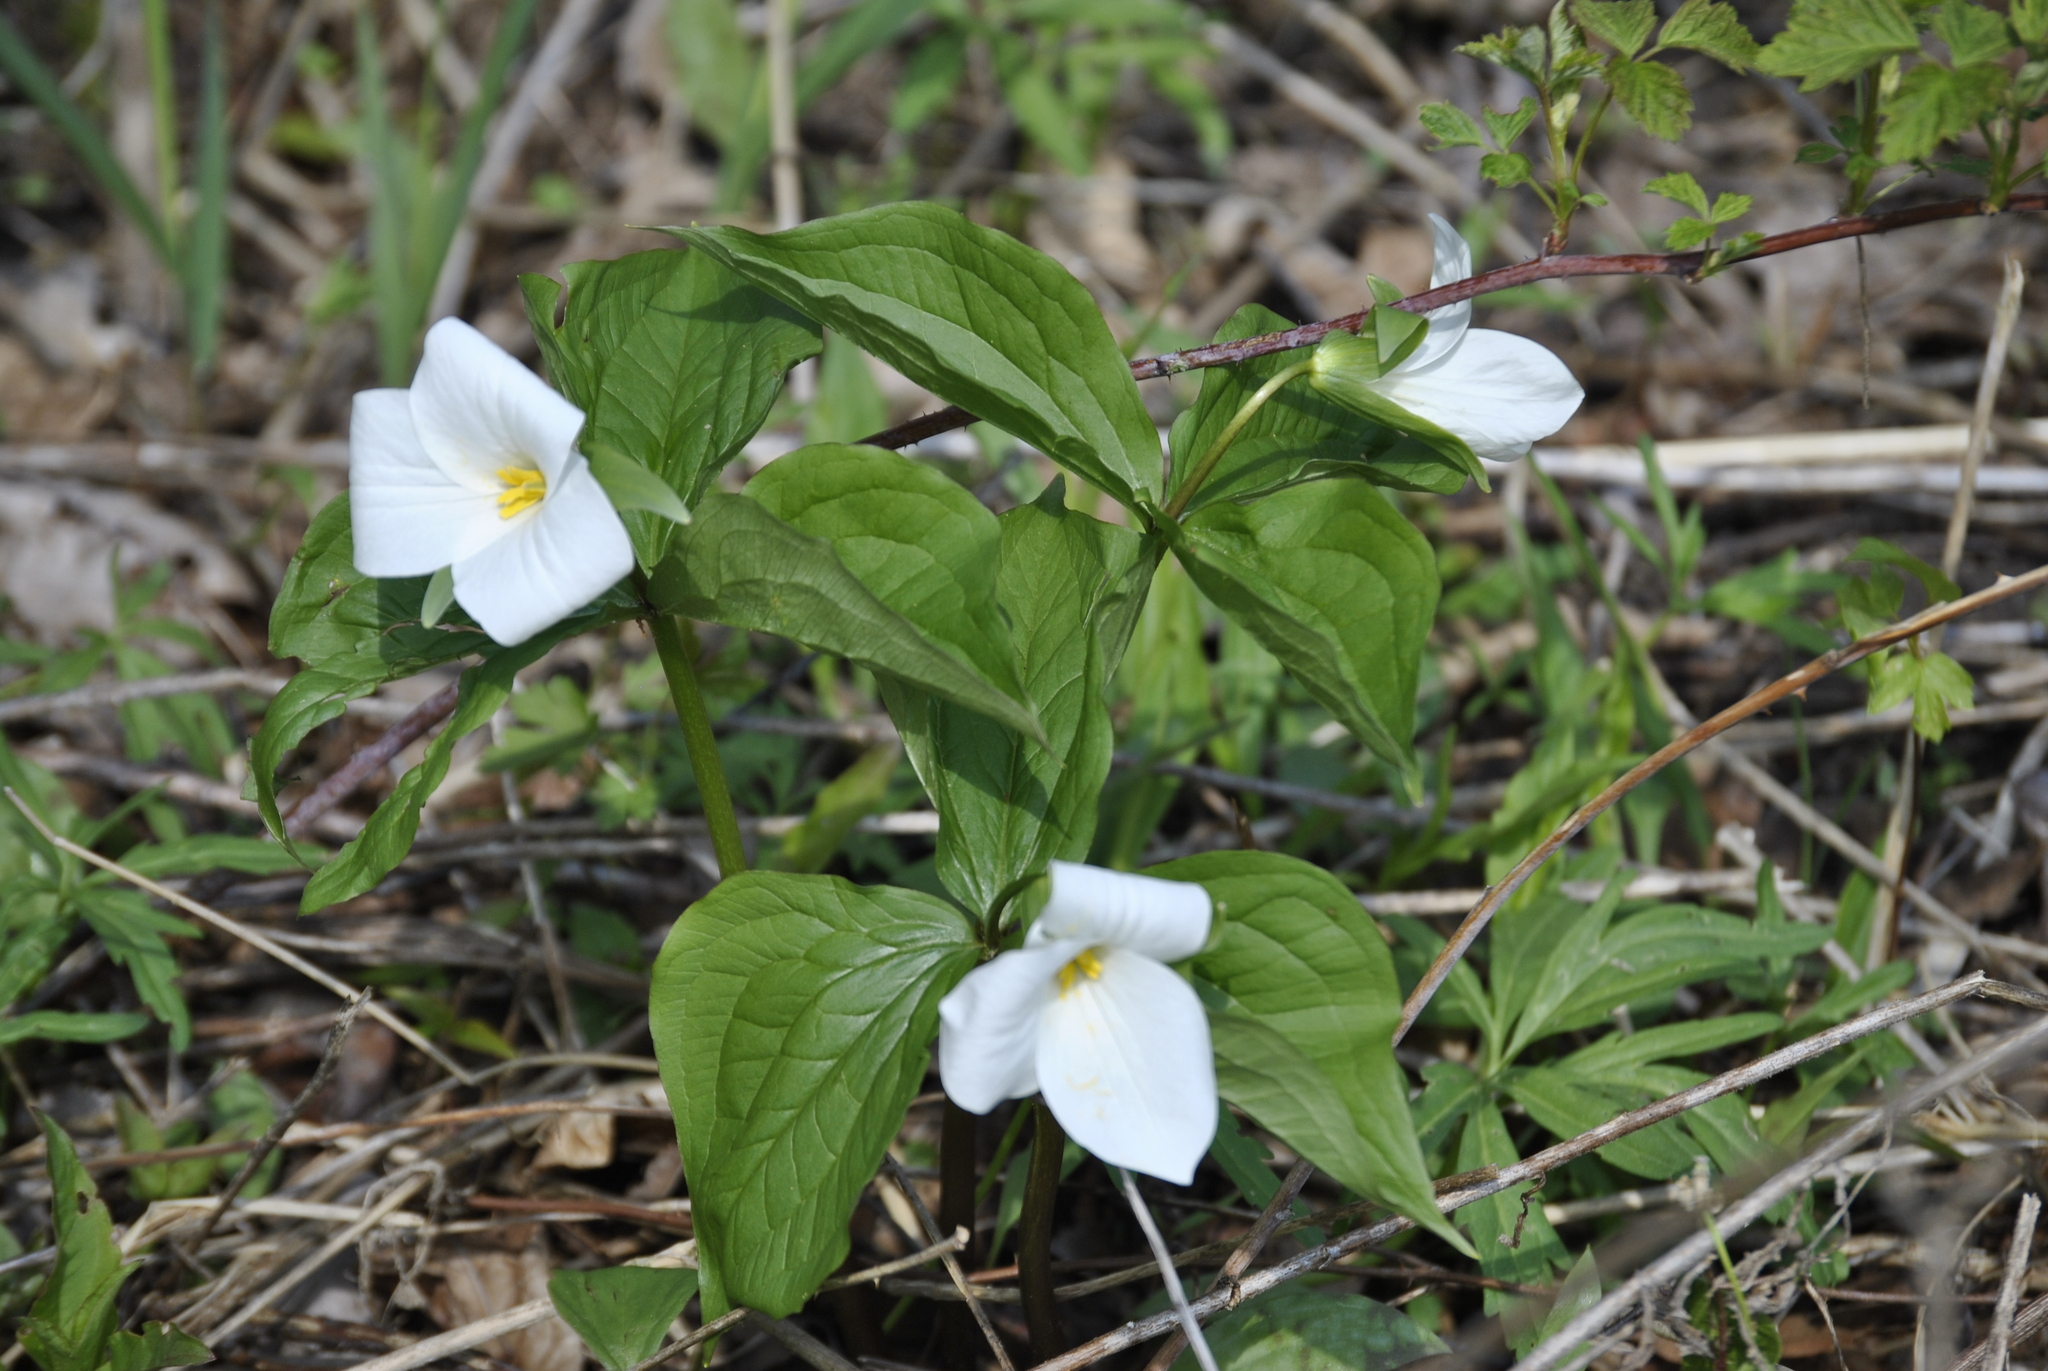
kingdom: Plantae
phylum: Tracheophyta
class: Liliopsida
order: Liliales
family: Melanthiaceae
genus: Trillium
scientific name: Trillium grandiflorum
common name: Great white trillium
